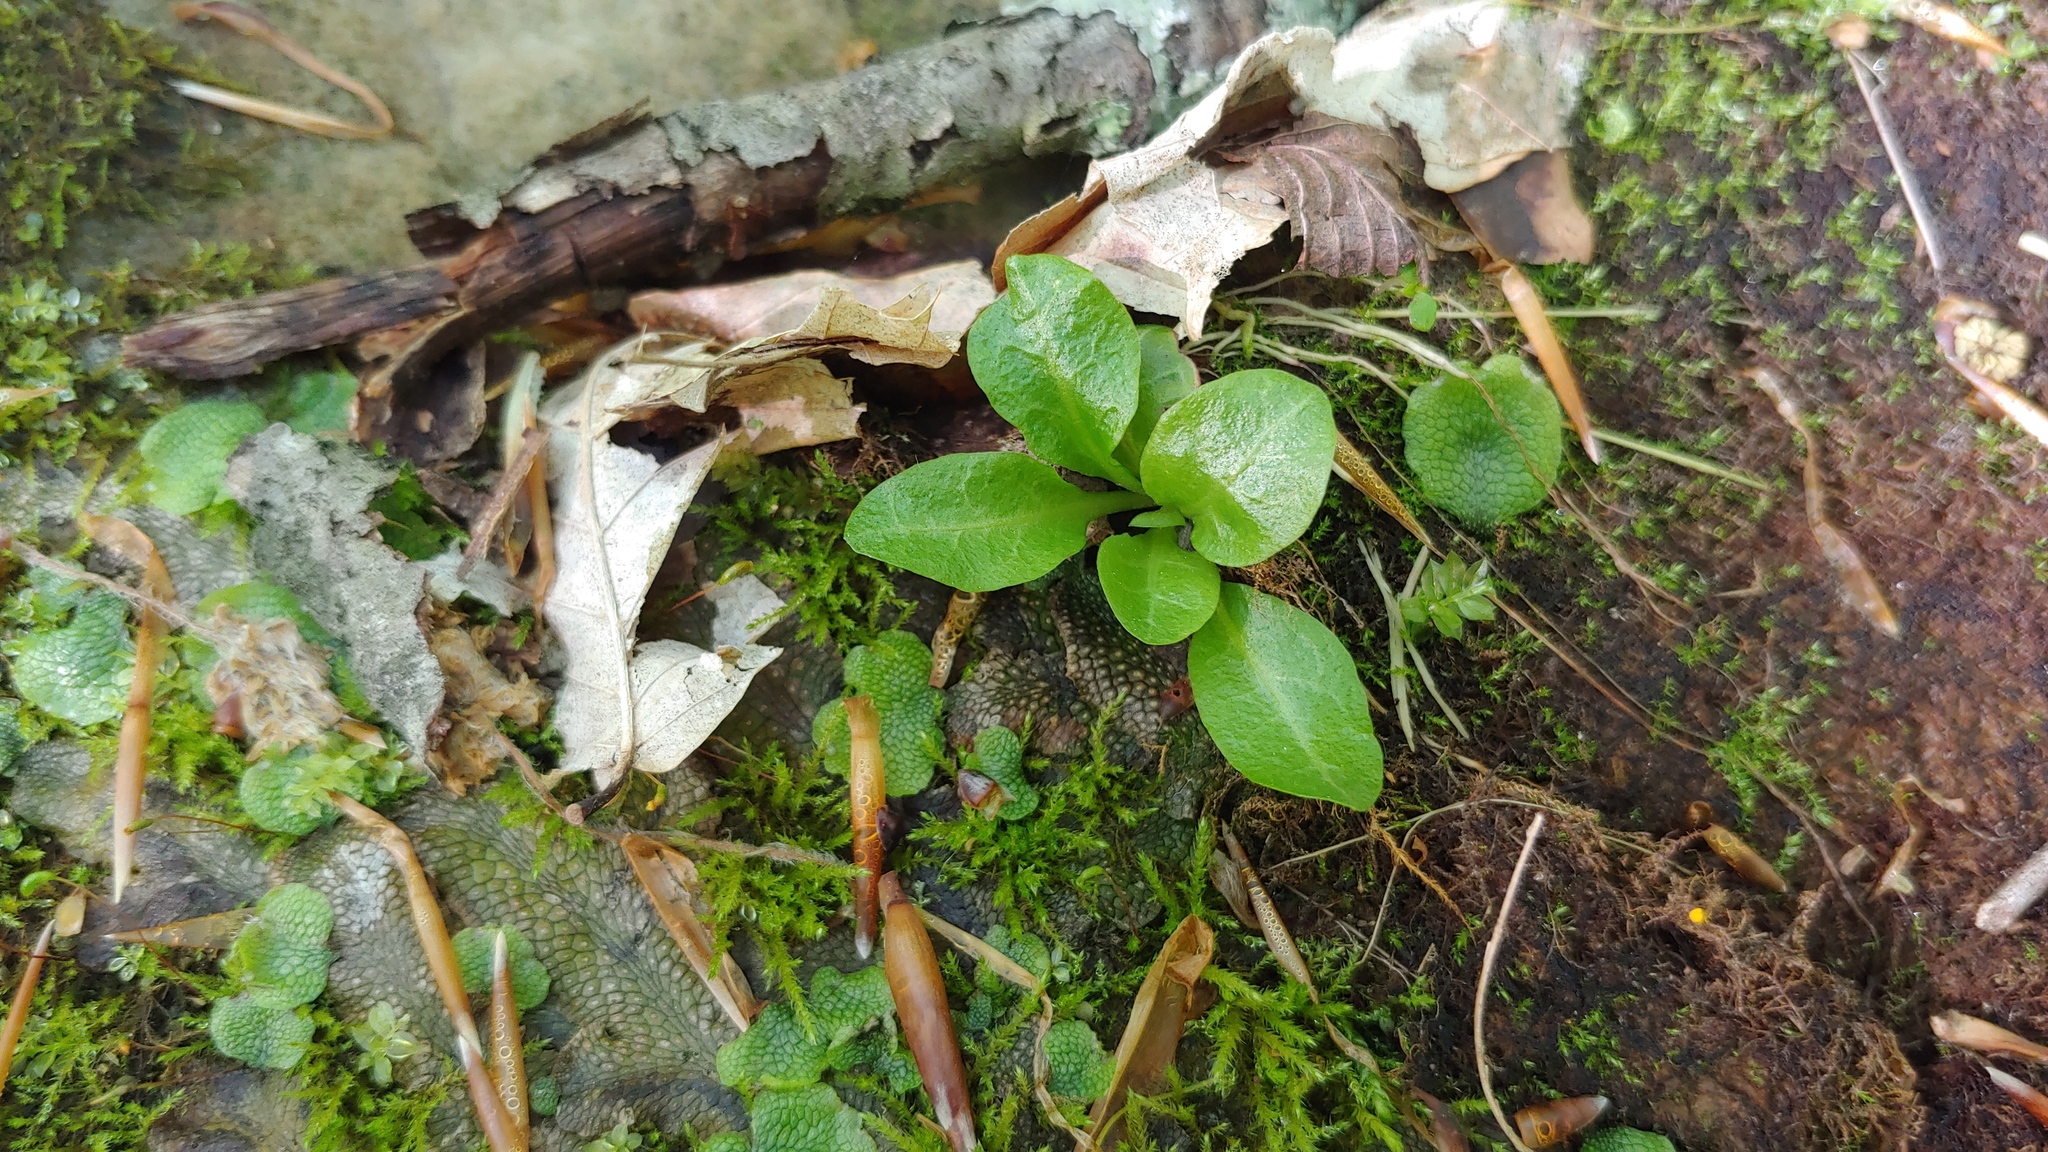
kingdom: Plantae
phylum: Tracheophyta
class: Magnoliopsida
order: Ericales
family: Primulaceae
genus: Samolus
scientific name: Samolus parviflorus
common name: False water pimpernel
